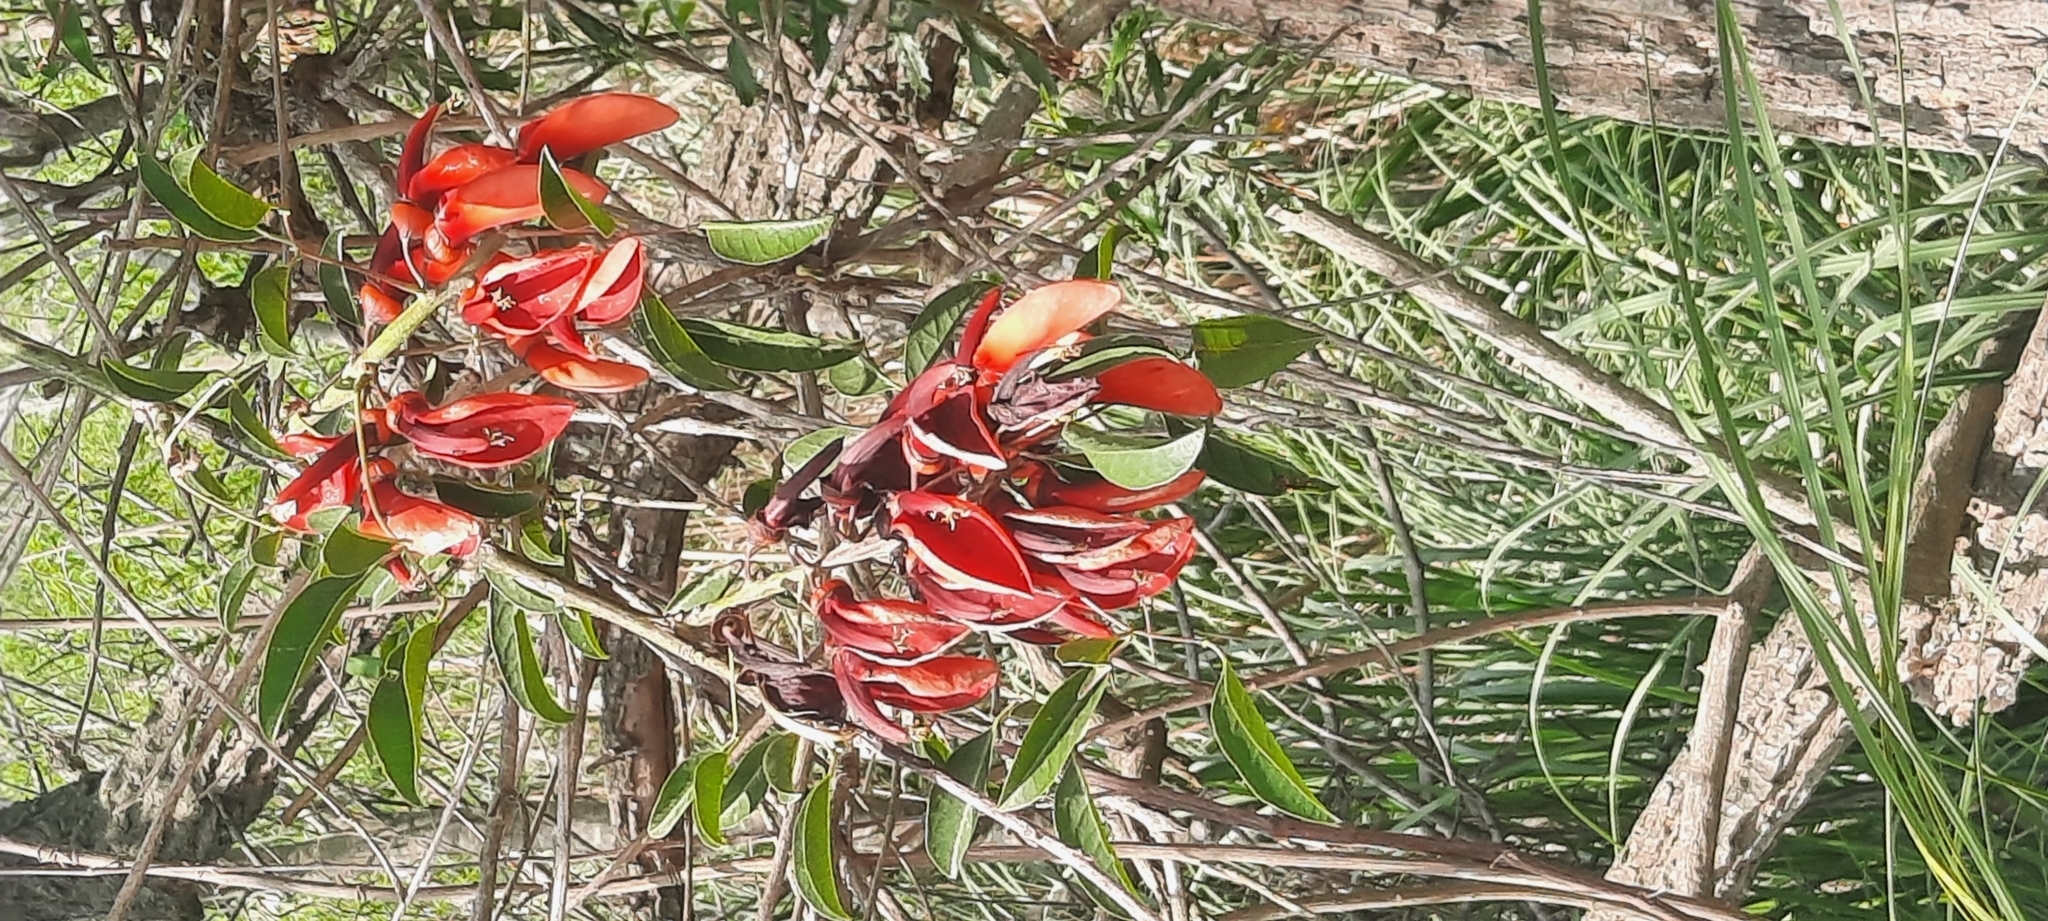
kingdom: Plantae
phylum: Tracheophyta
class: Magnoliopsida
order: Fabales
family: Fabaceae
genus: Erythrina
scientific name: Erythrina crista-galli
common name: Cockspur coral tree
